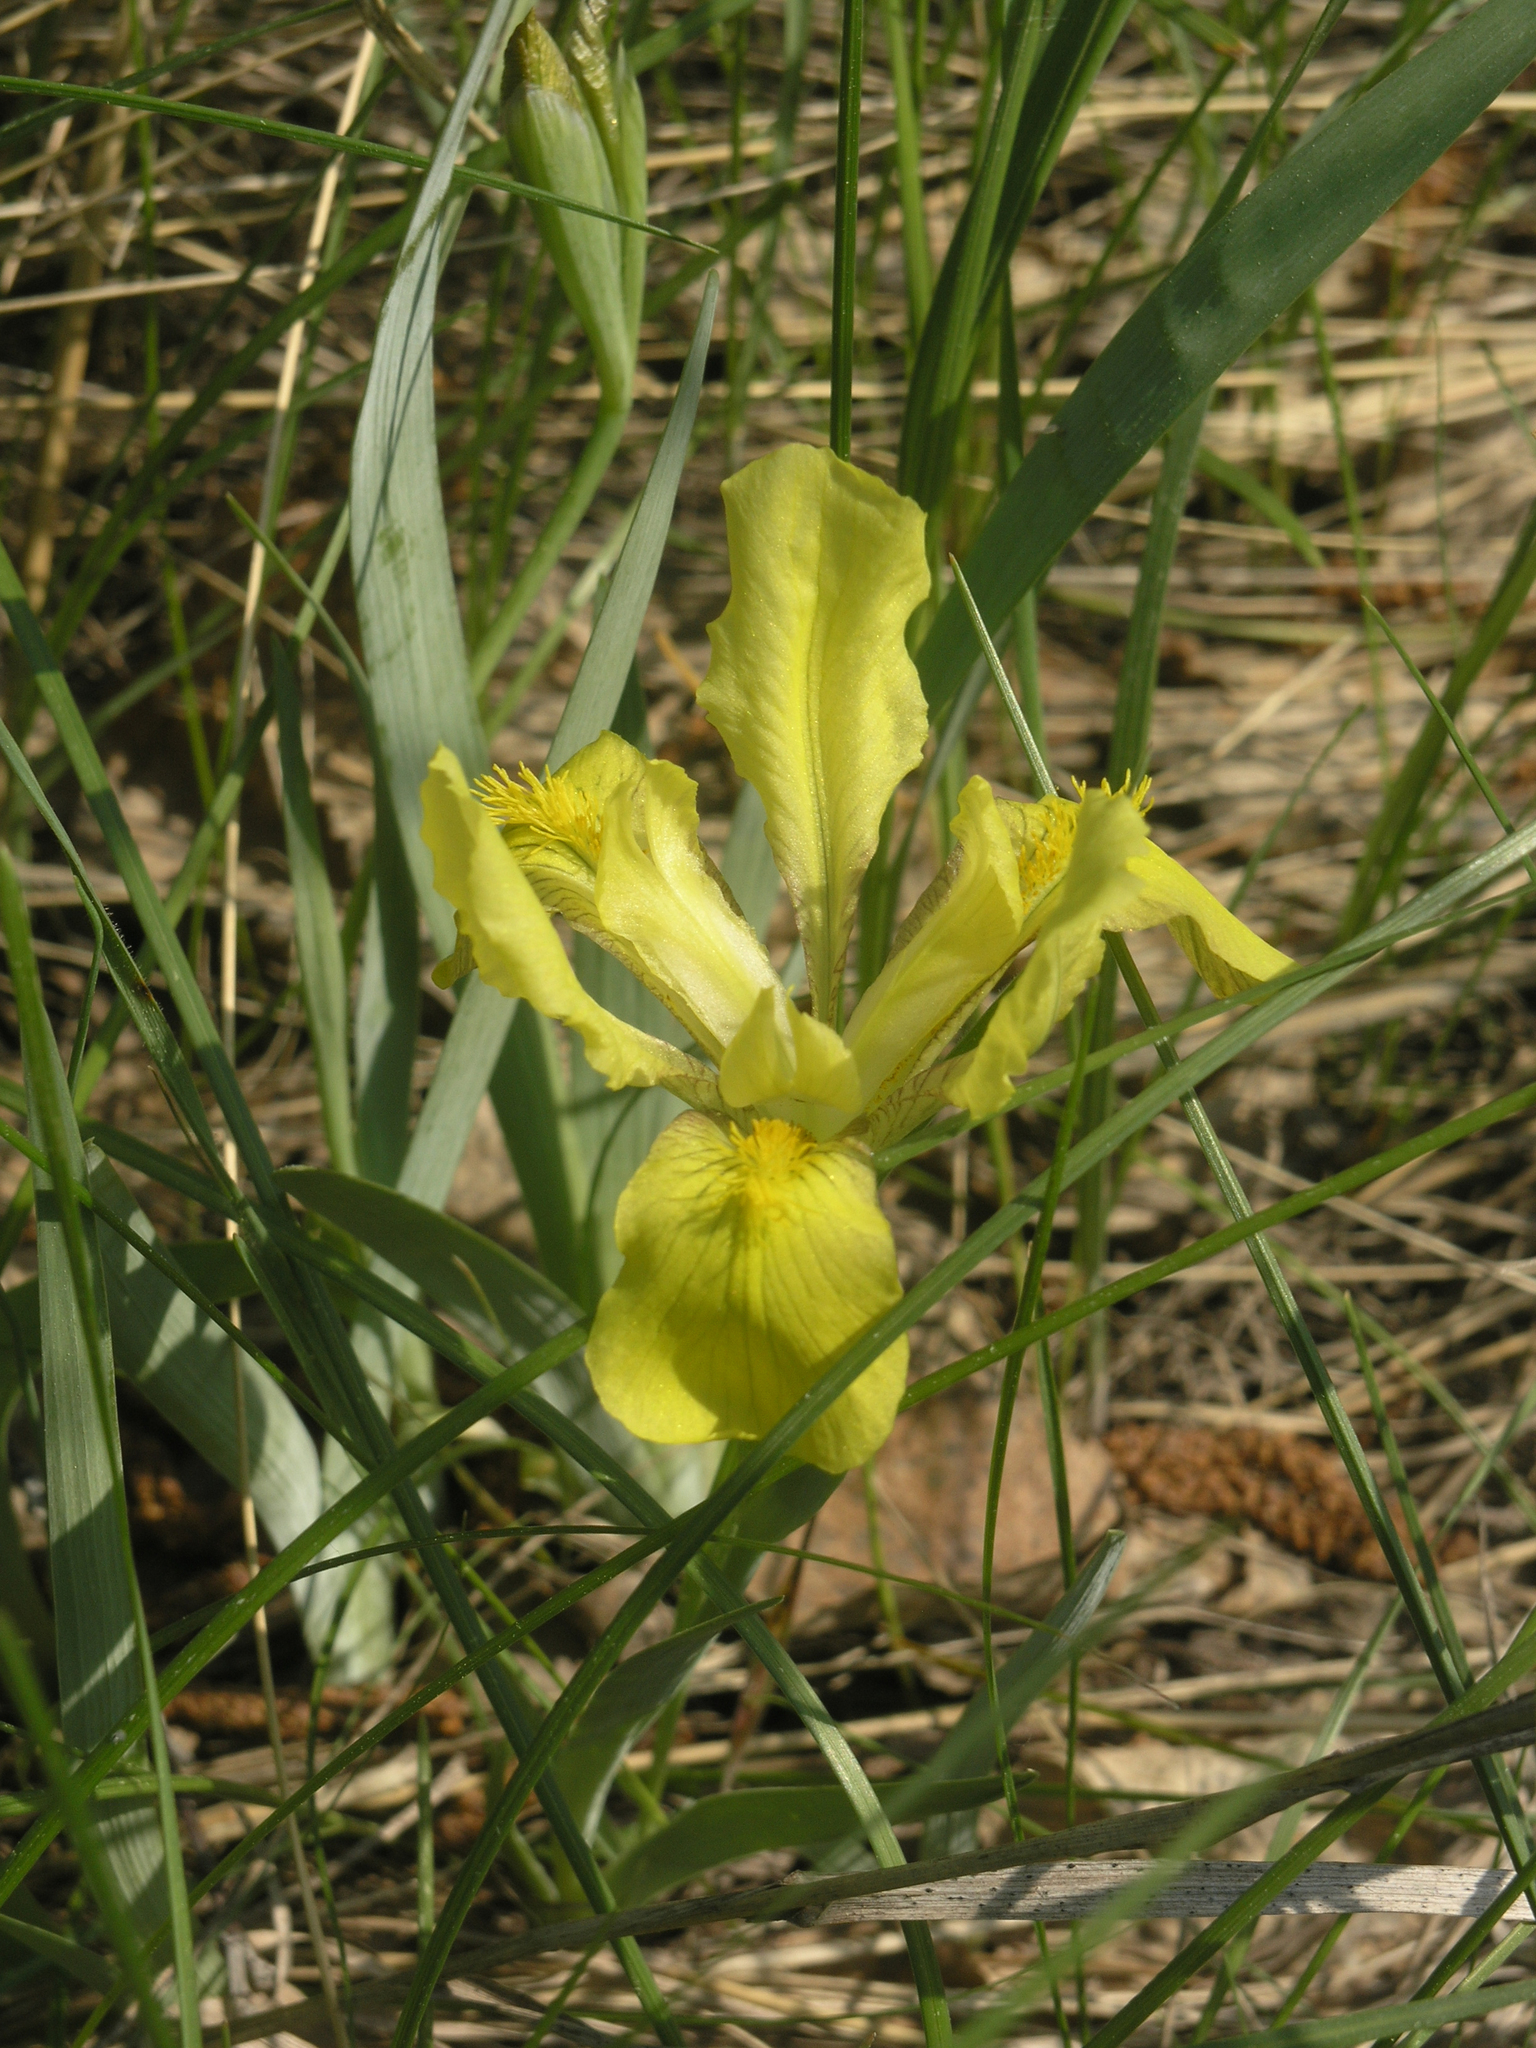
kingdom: Plantae
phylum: Tracheophyta
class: Liliopsida
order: Asparagales
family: Iridaceae
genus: Iris
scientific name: Iris humilis
